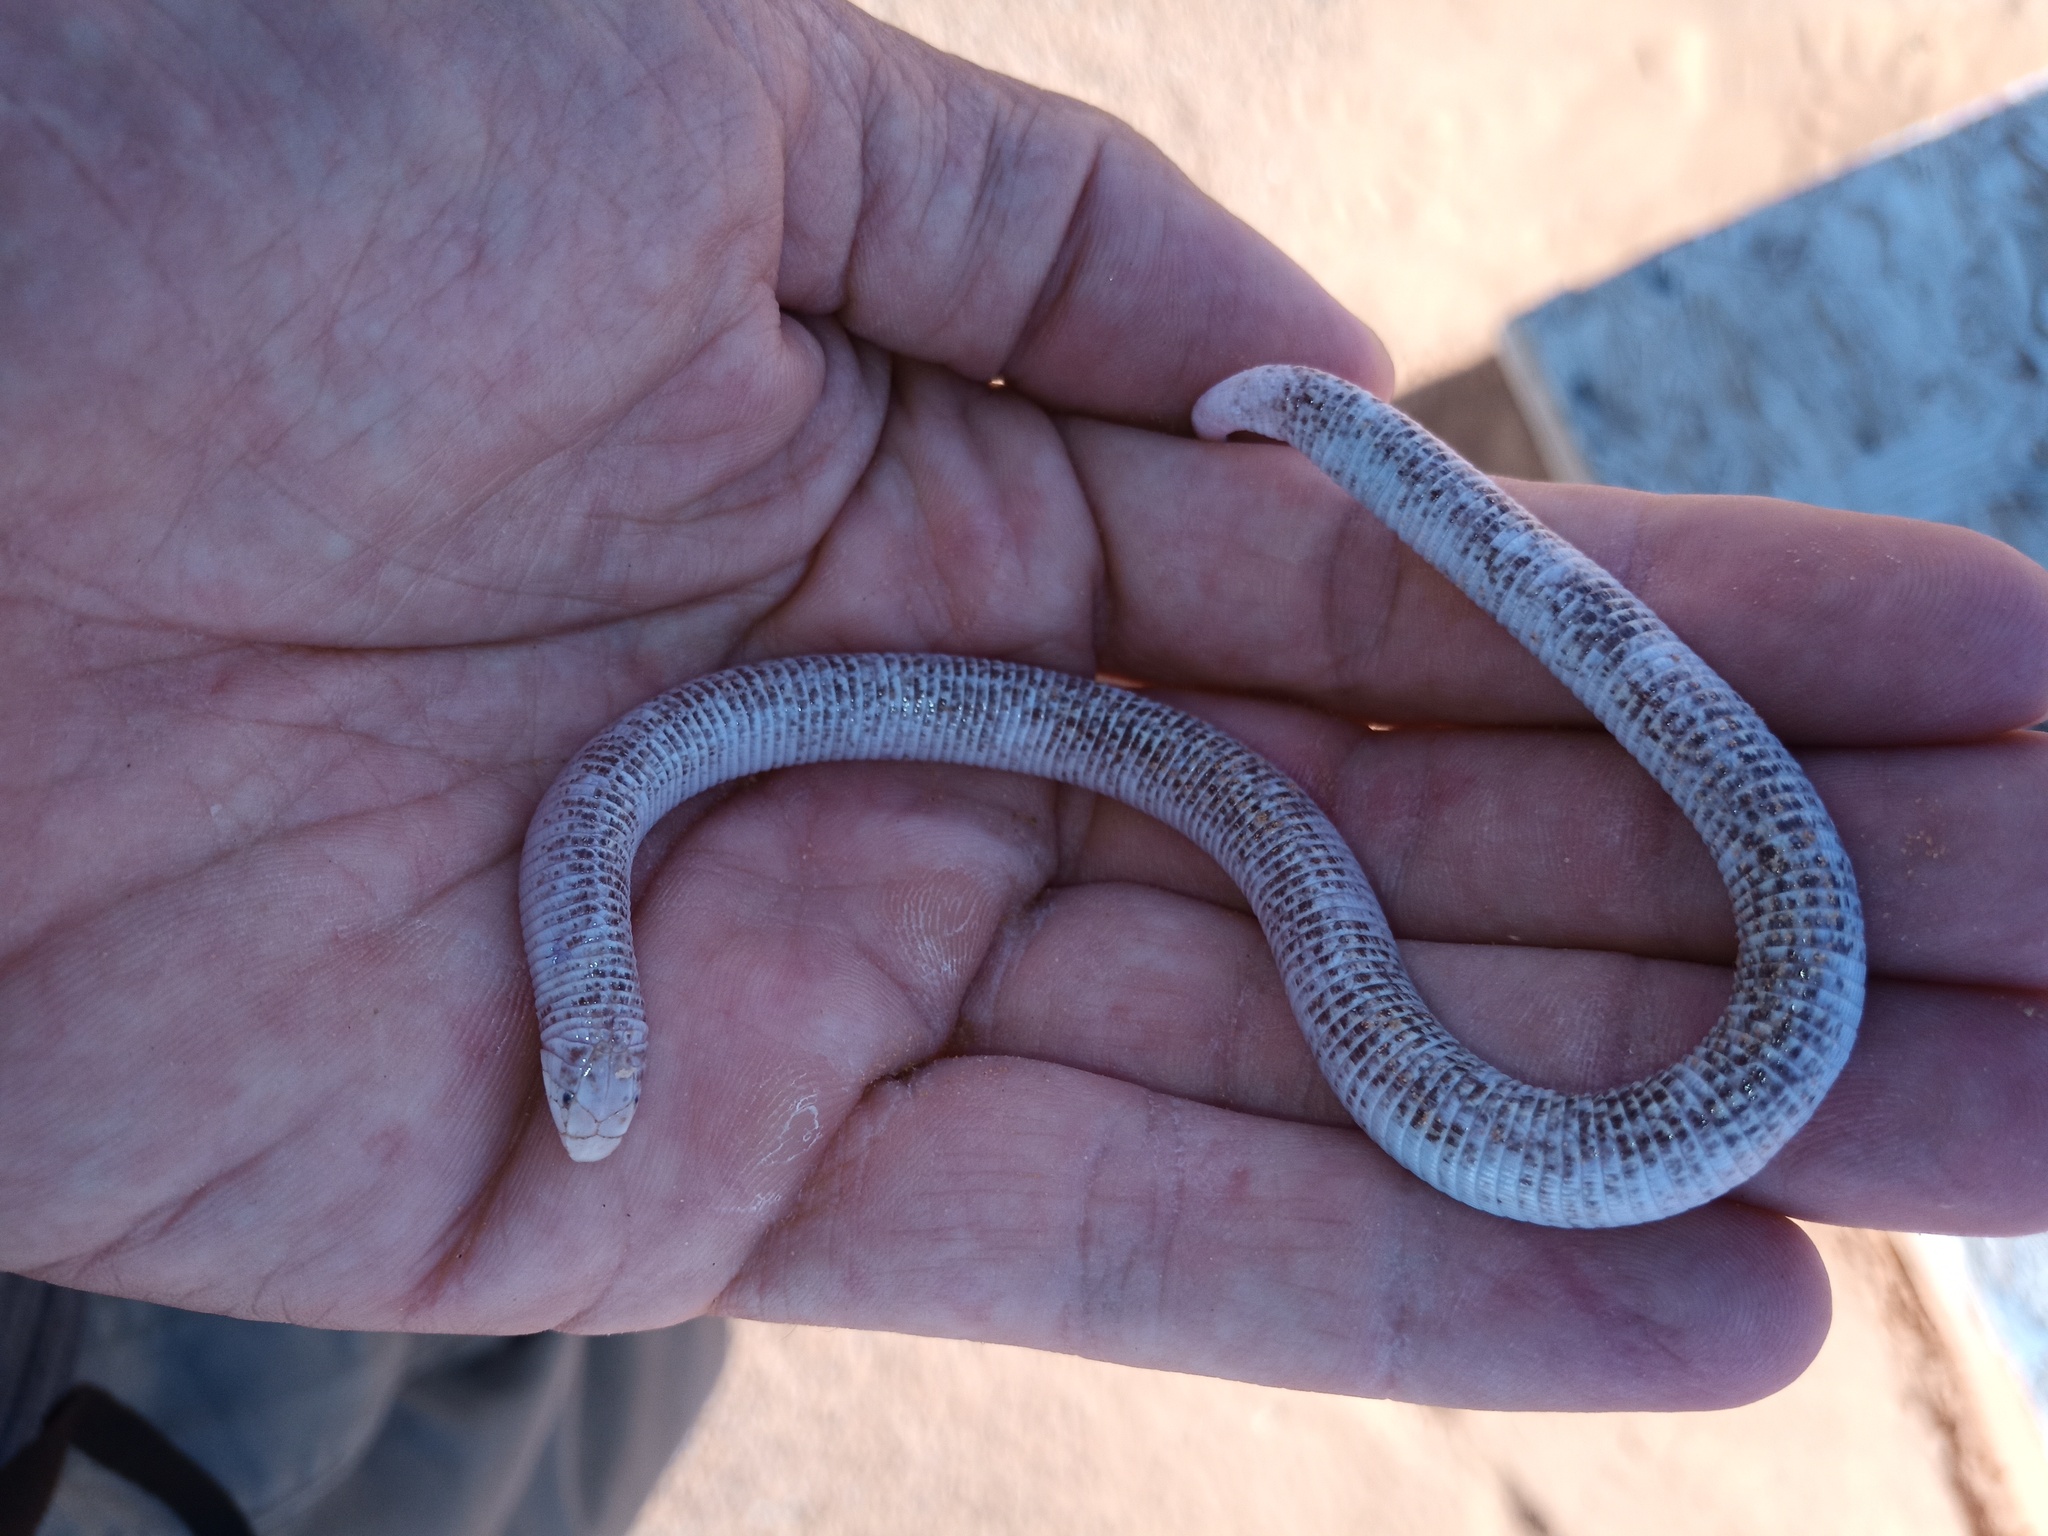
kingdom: Animalia
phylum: Chordata
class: Squamata
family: Trogonophidae
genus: Diplometopon
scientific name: Diplometopon zarudnyi
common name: Zarudnyi's worm lizard
